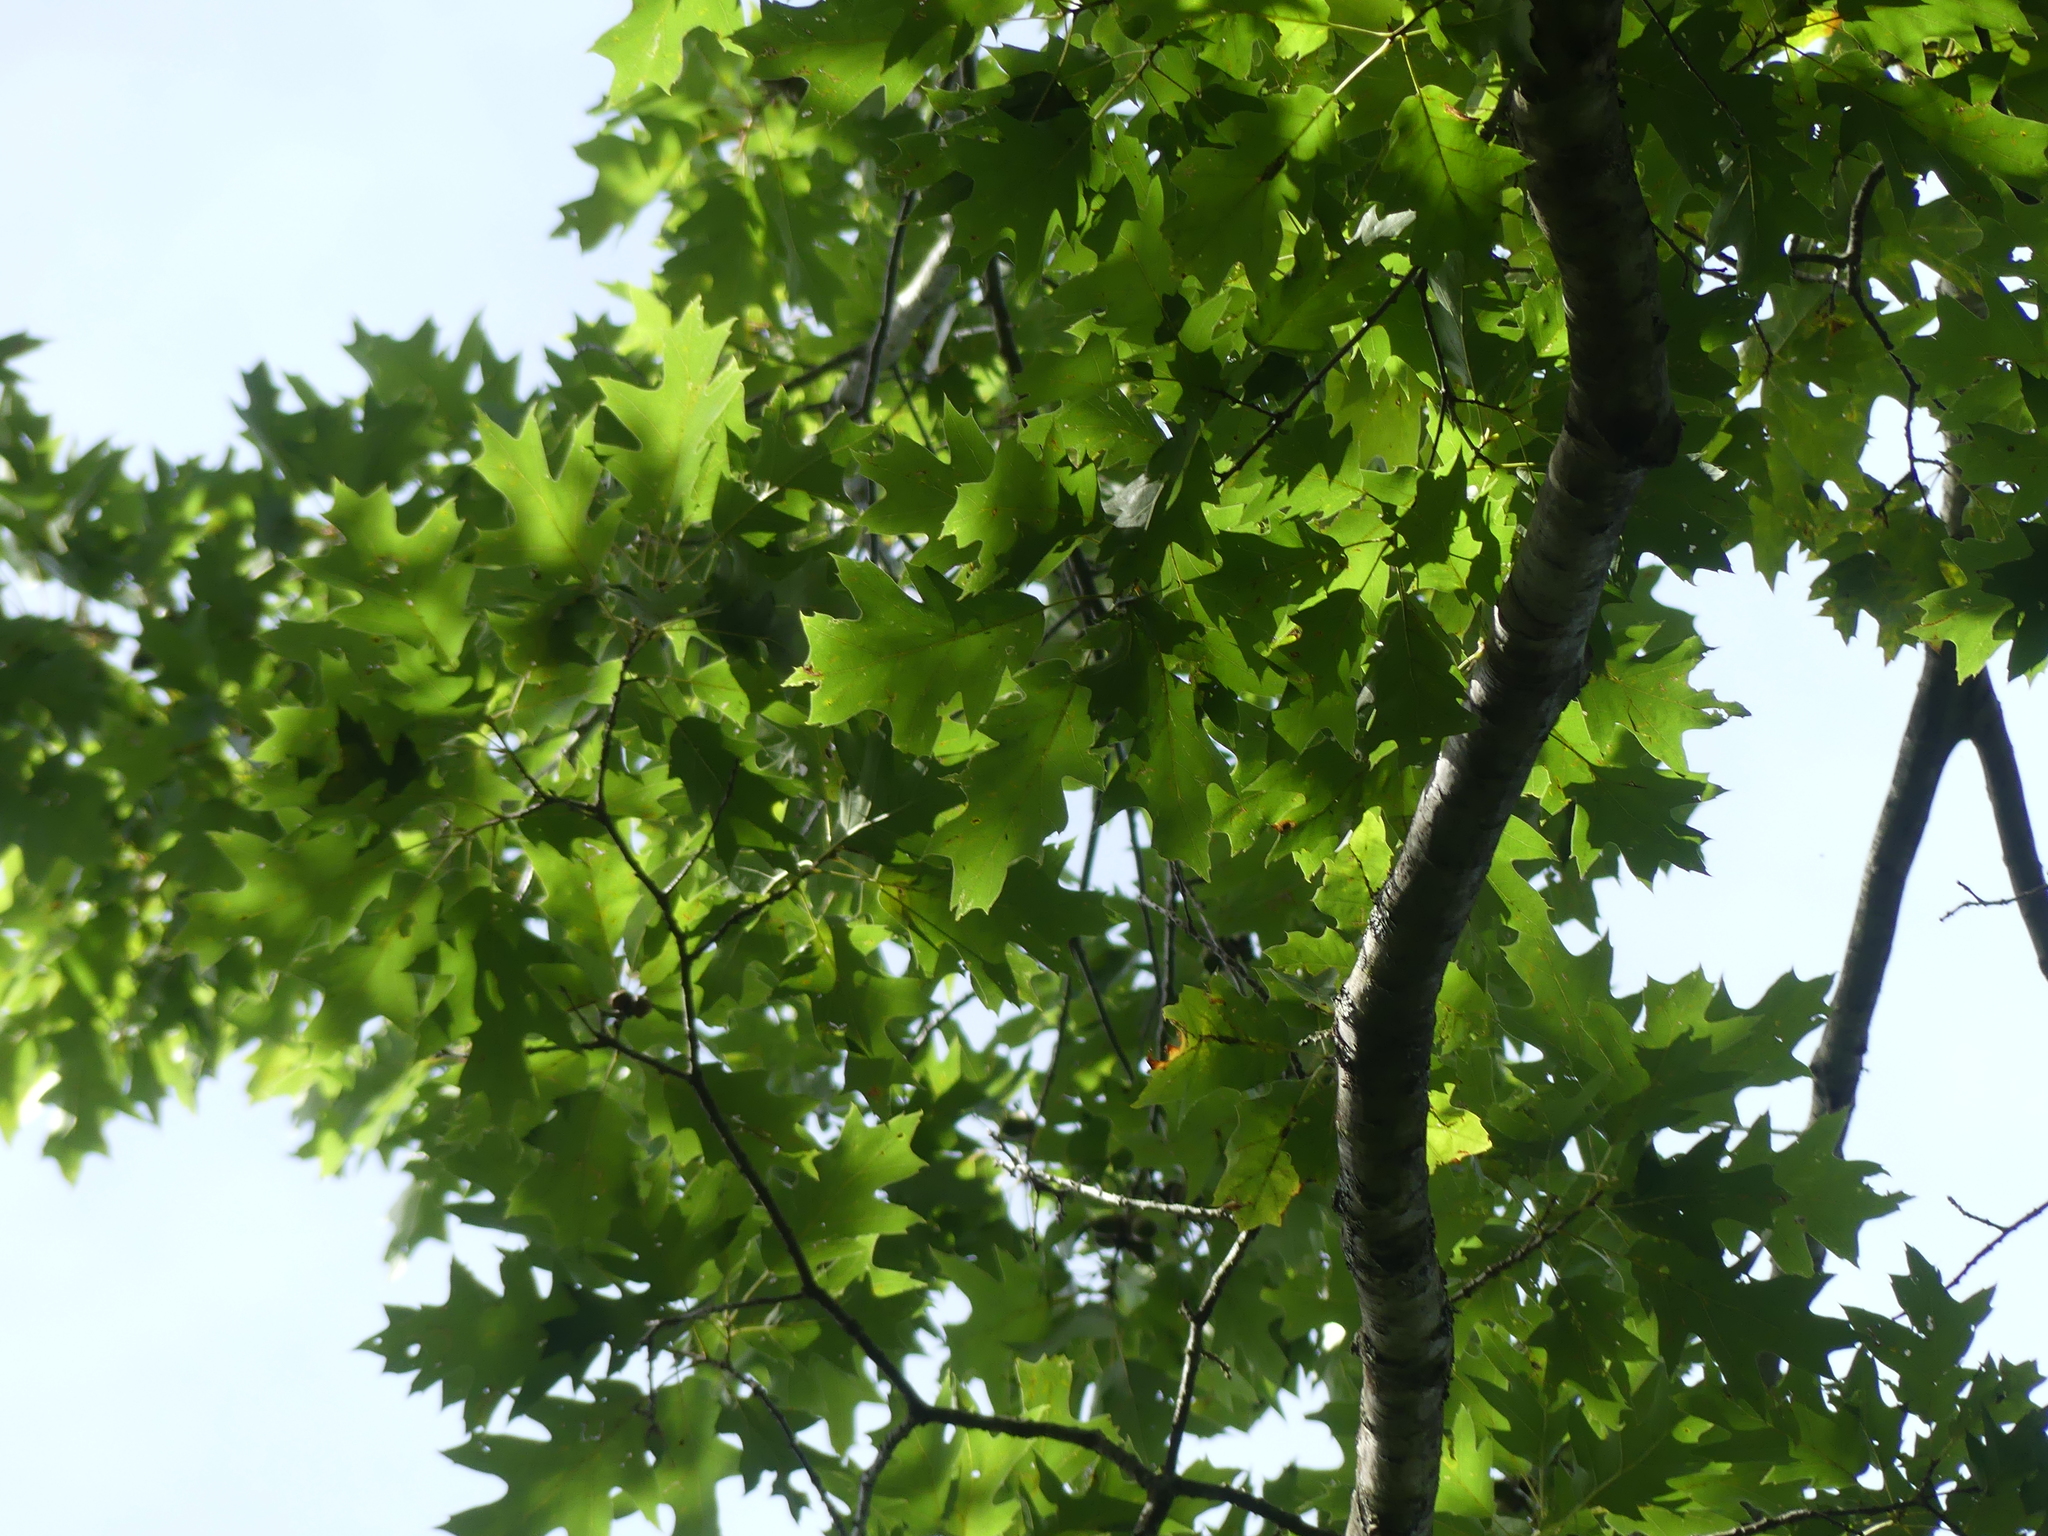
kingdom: Plantae
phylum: Tracheophyta
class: Magnoliopsida
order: Fagales
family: Fagaceae
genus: Quercus
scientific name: Quercus rubra
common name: Red oak
